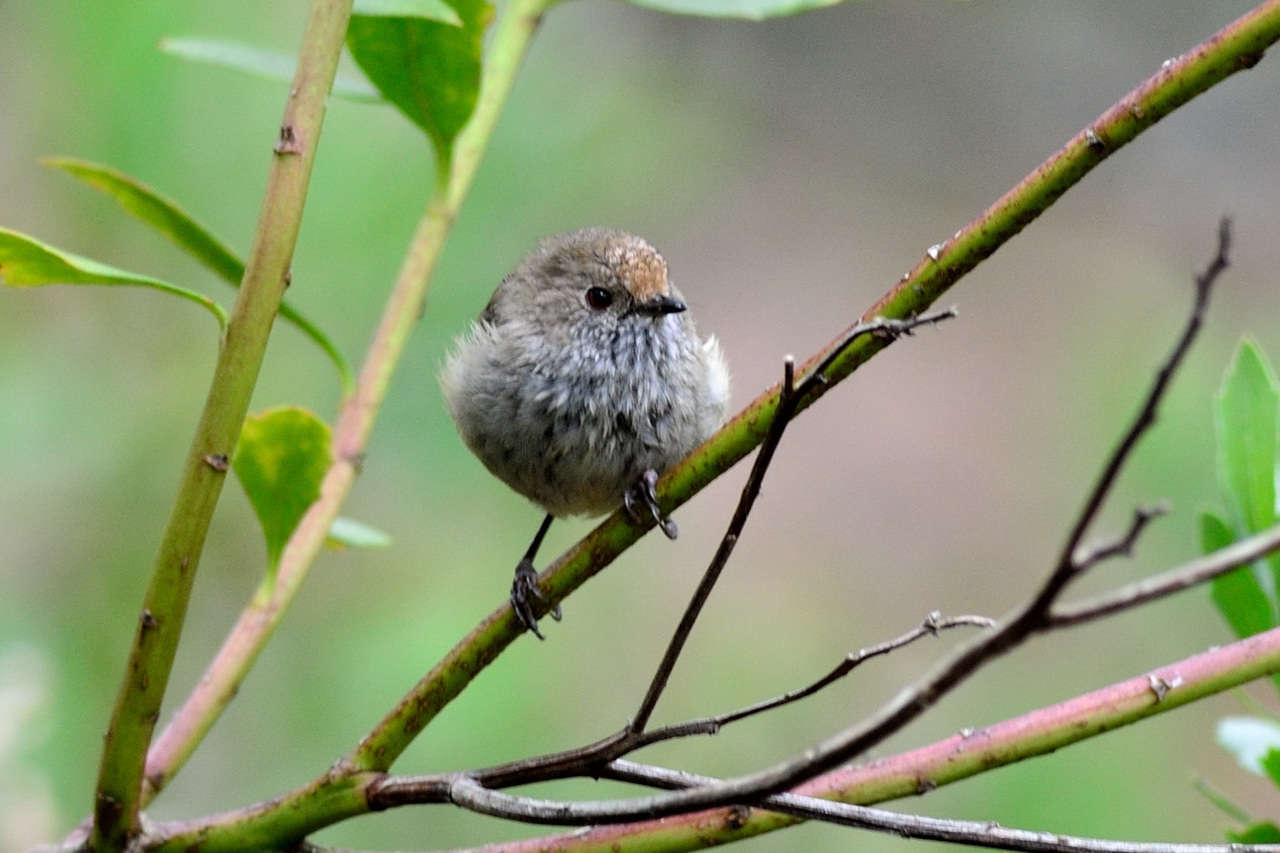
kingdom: Animalia
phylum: Chordata
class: Aves
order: Passeriformes
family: Acanthizidae
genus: Acanthiza
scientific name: Acanthiza pusilla
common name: Brown thornbill
